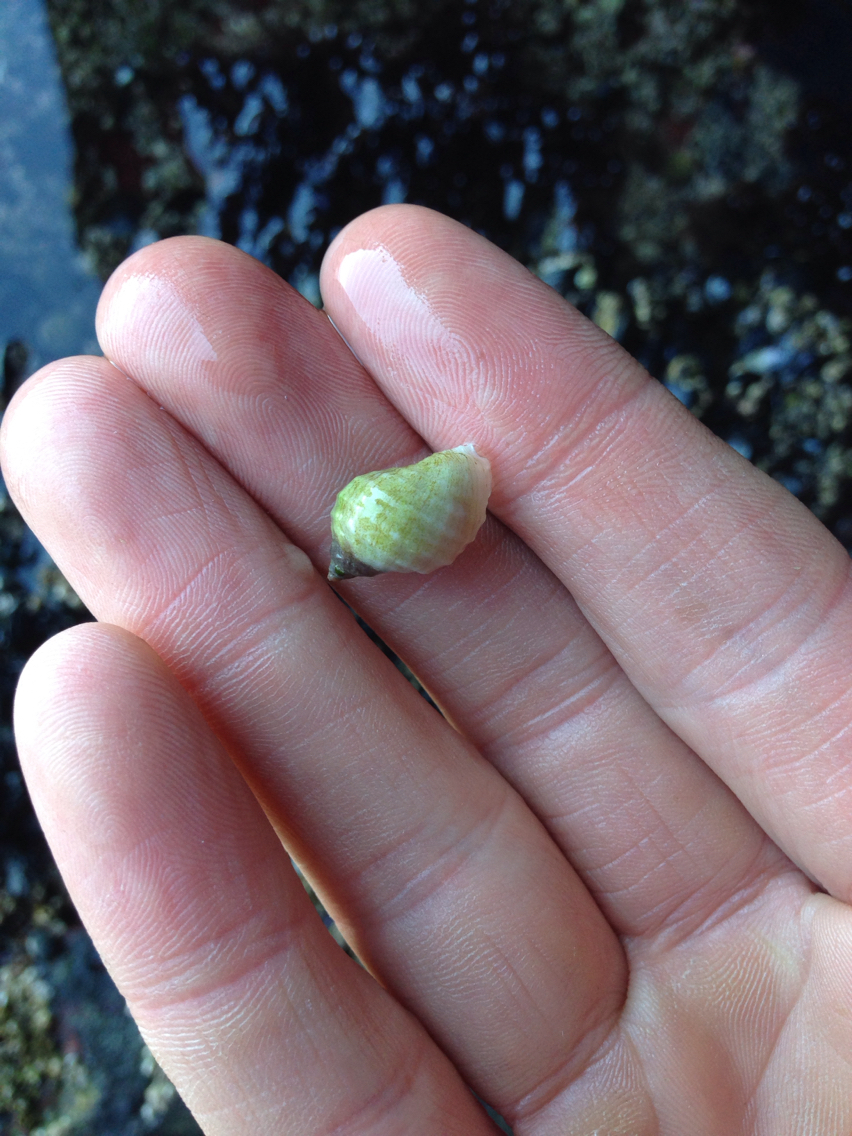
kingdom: Animalia
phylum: Mollusca
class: Gastropoda
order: Neogastropoda
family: Muricidae
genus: Nucella
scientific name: Nucella lapillus
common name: Dog whelk
